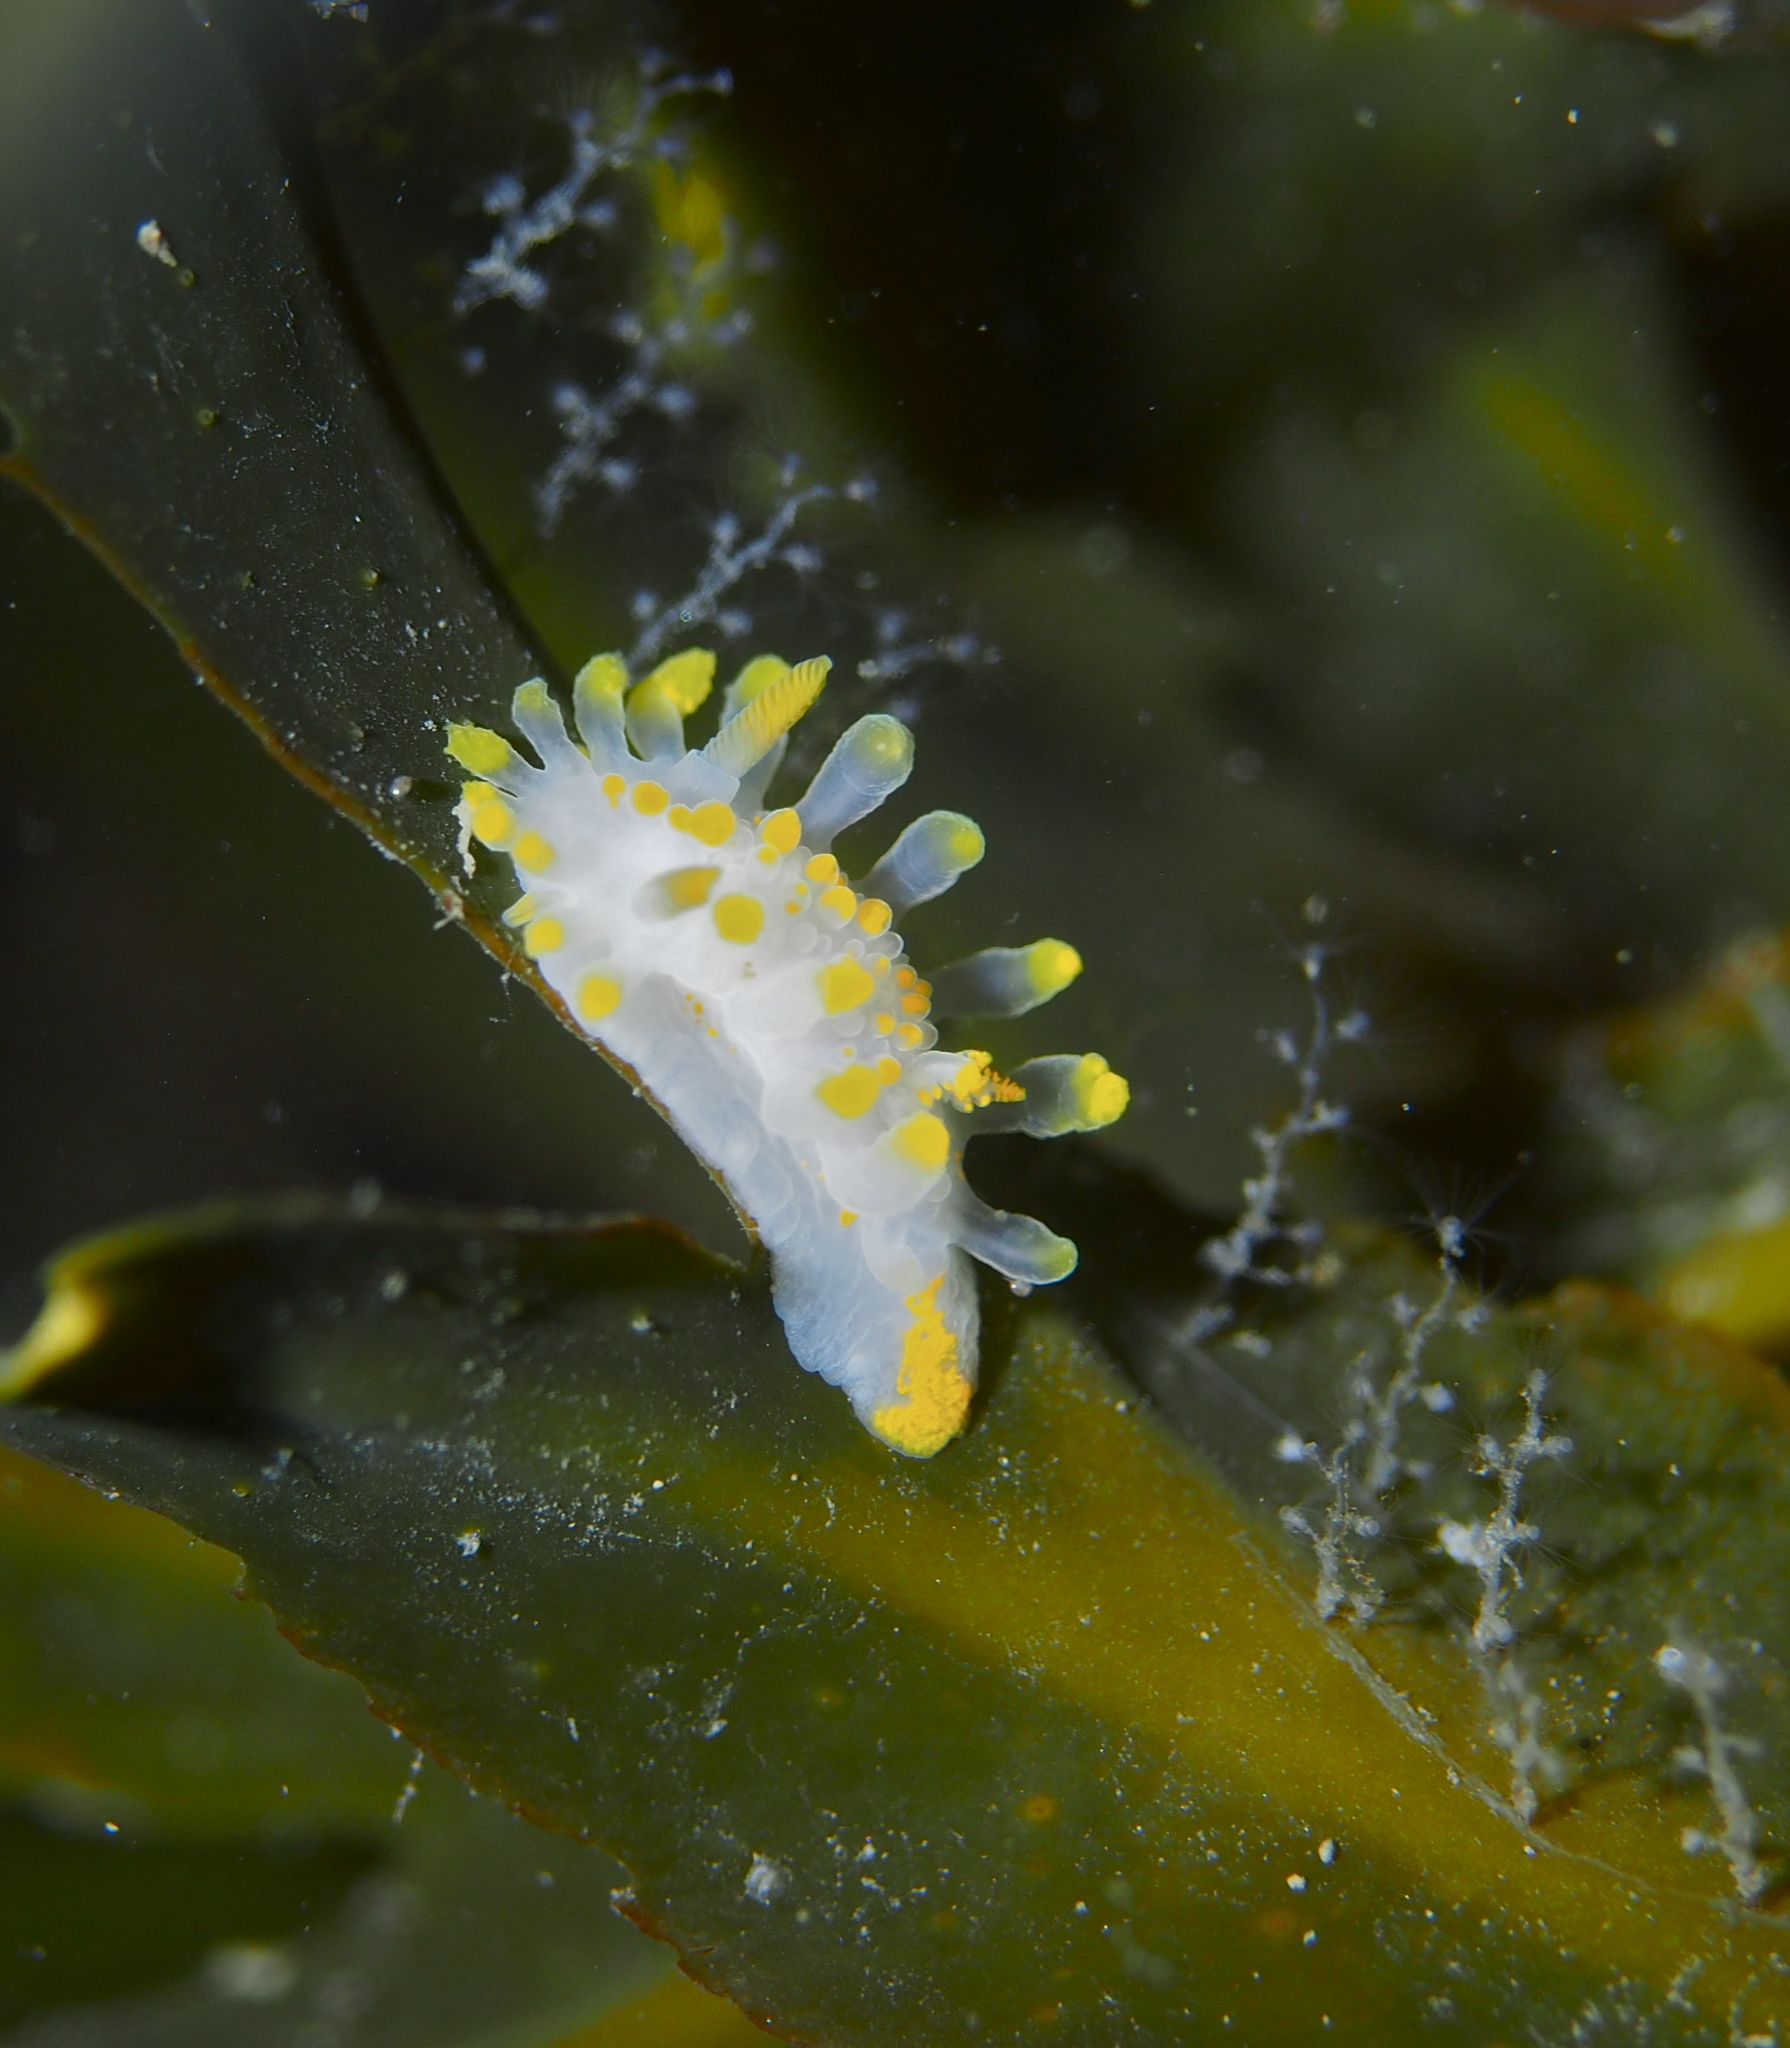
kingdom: Animalia
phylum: Mollusca
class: Gastropoda
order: Nudibranchia
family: Polyceridae
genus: Limacia
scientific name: Limacia clavigera
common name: Orange-clubbed sea slug
